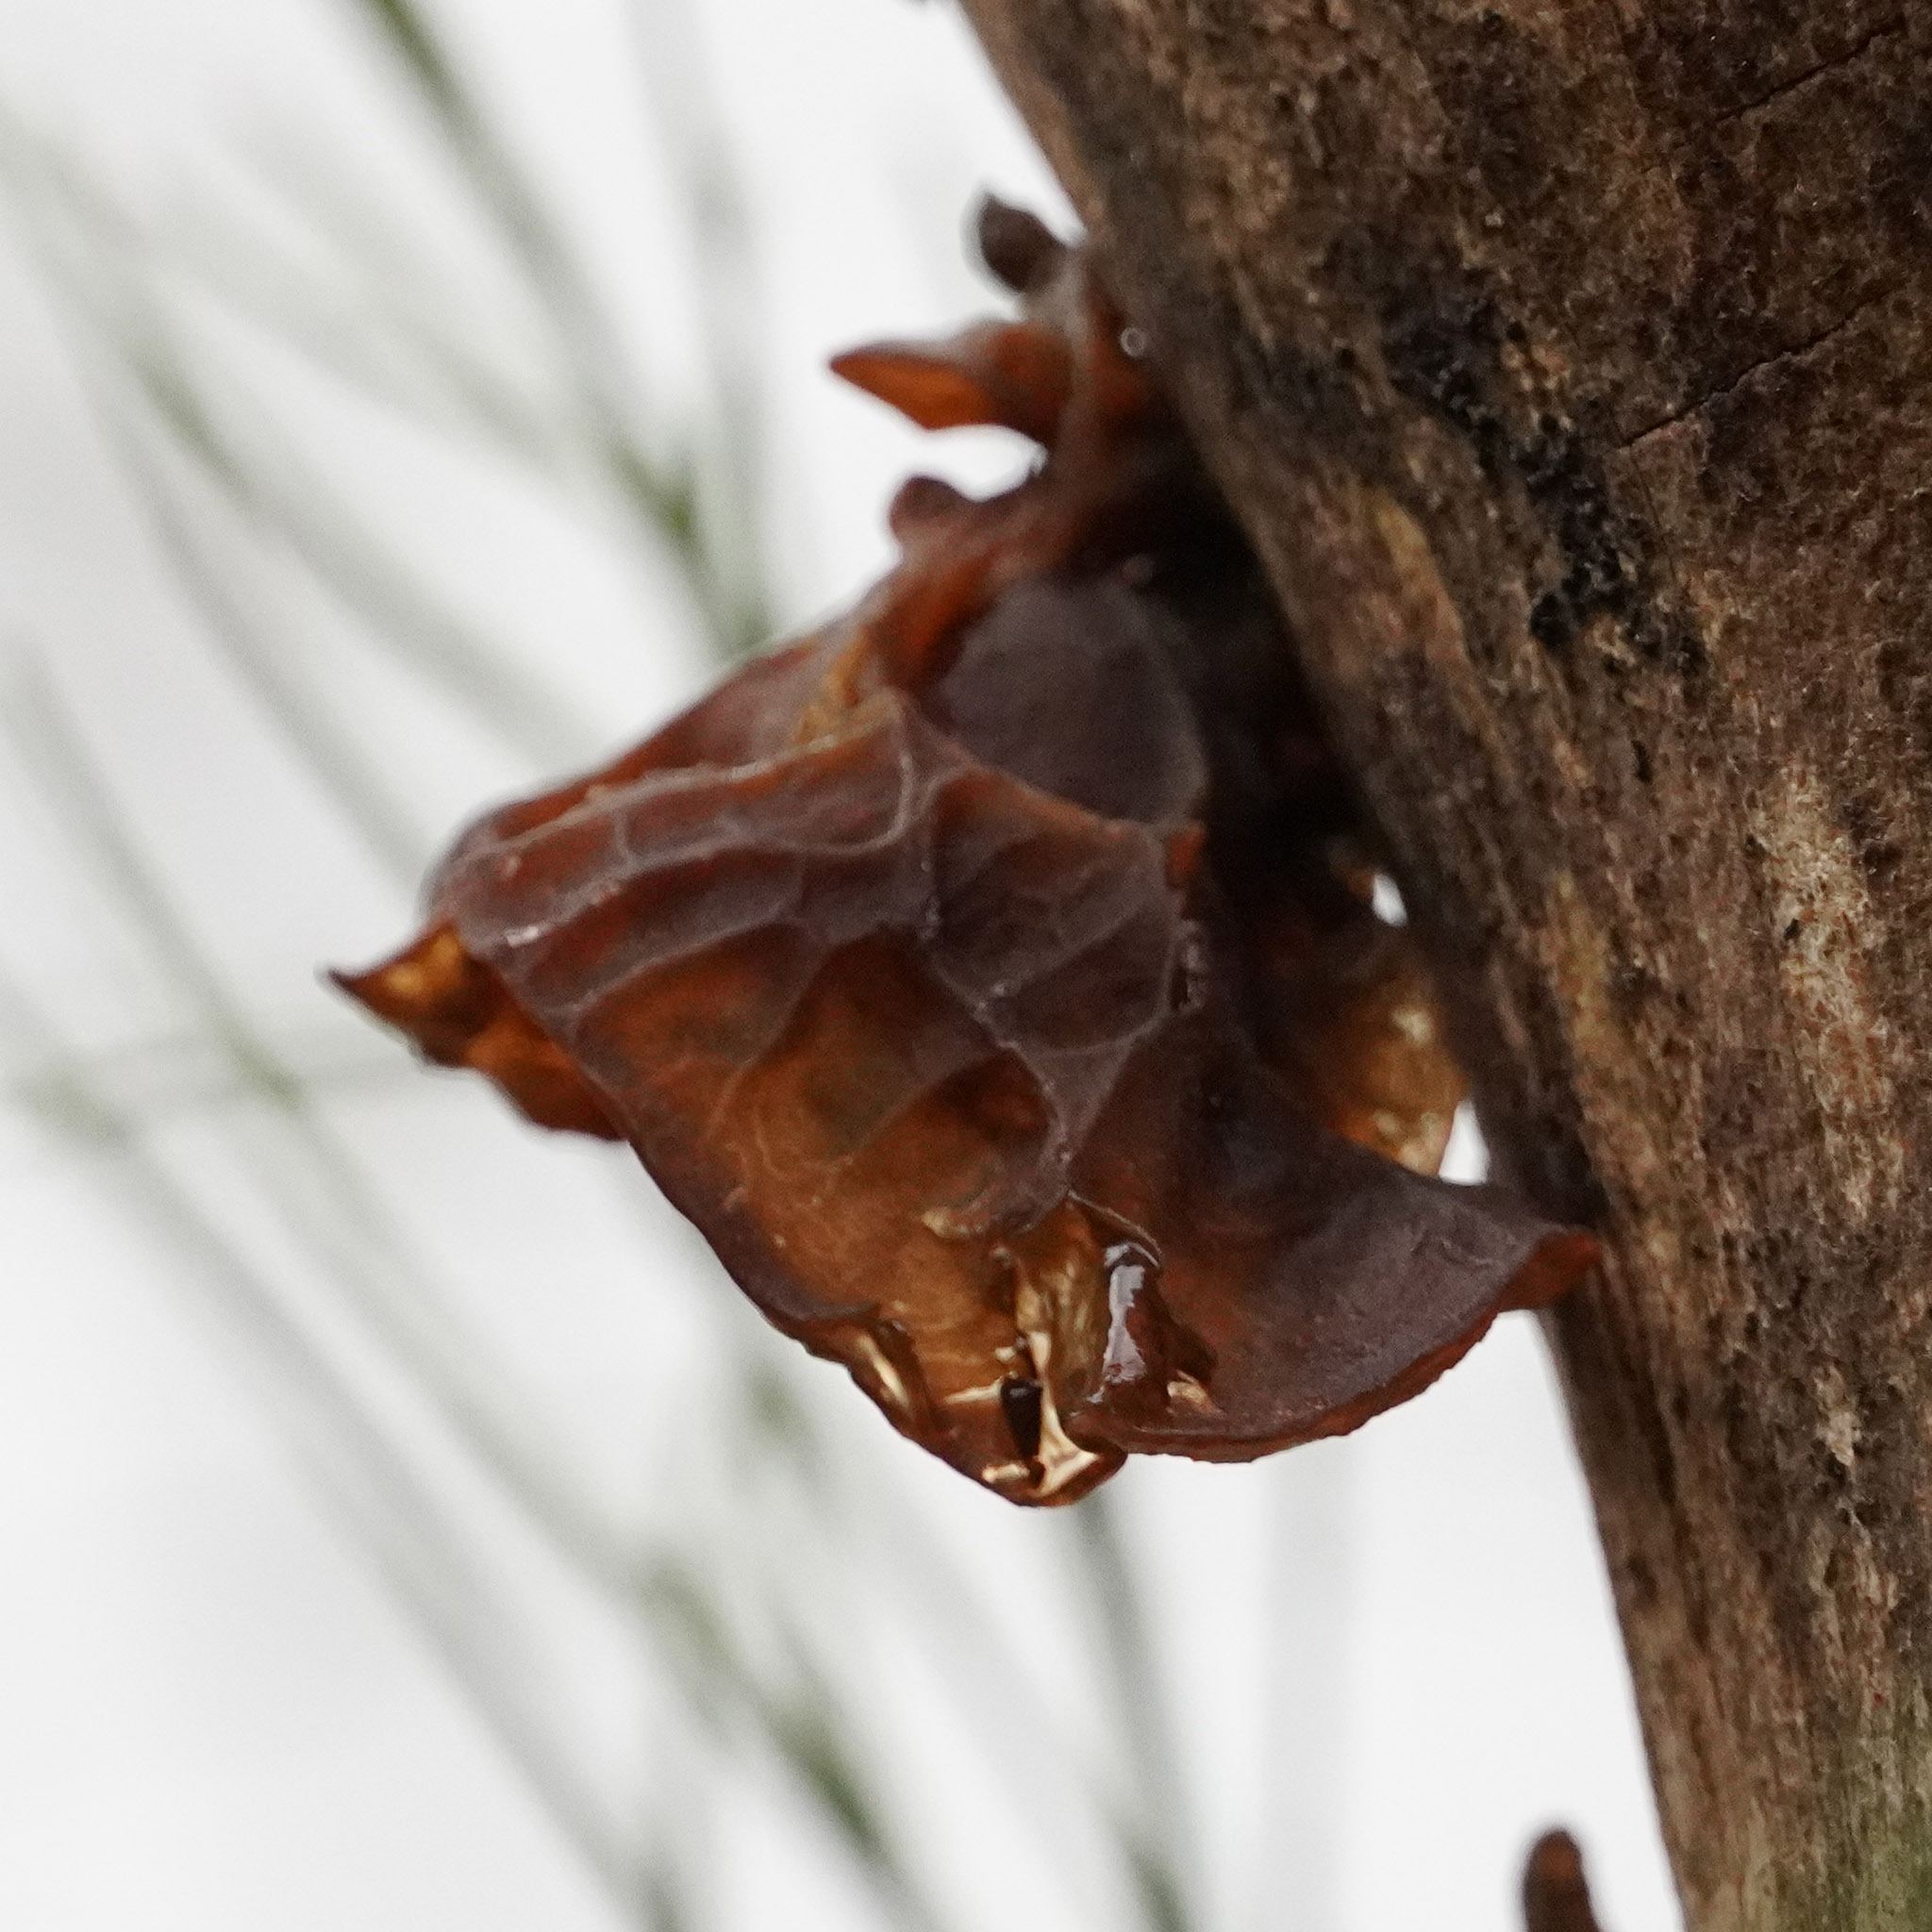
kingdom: Fungi
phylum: Basidiomycota
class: Agaricomycetes
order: Auriculariales
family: Auriculariaceae
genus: Auricularia
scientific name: Auricularia auricula-judae
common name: Jelly ear
